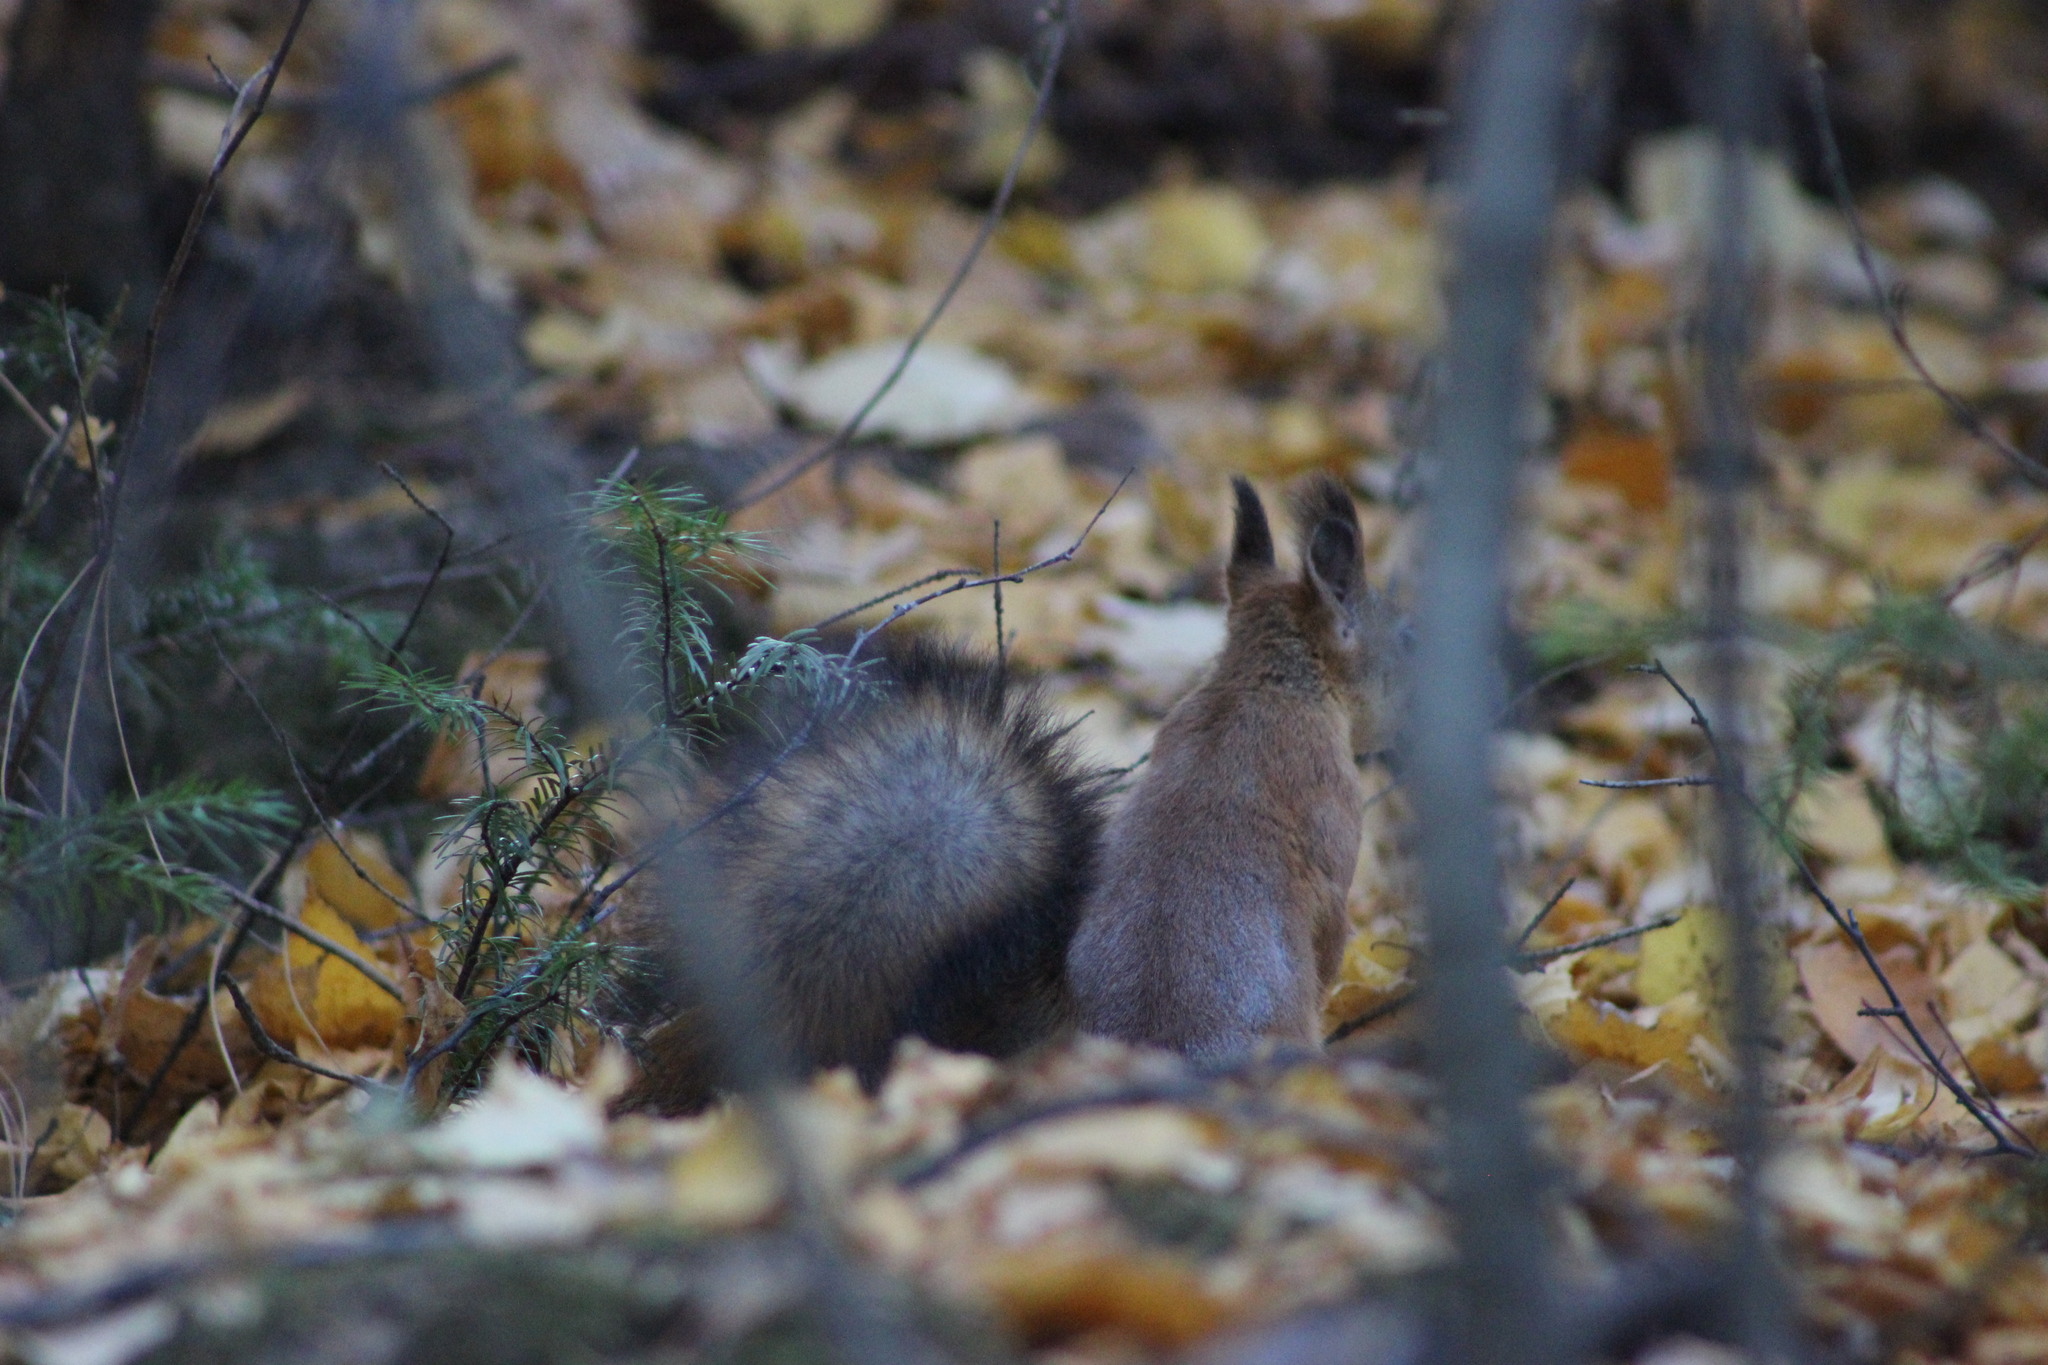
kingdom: Animalia
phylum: Chordata
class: Mammalia
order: Rodentia
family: Sciuridae
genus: Sciurus
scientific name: Sciurus vulgaris
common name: Eurasian red squirrel
